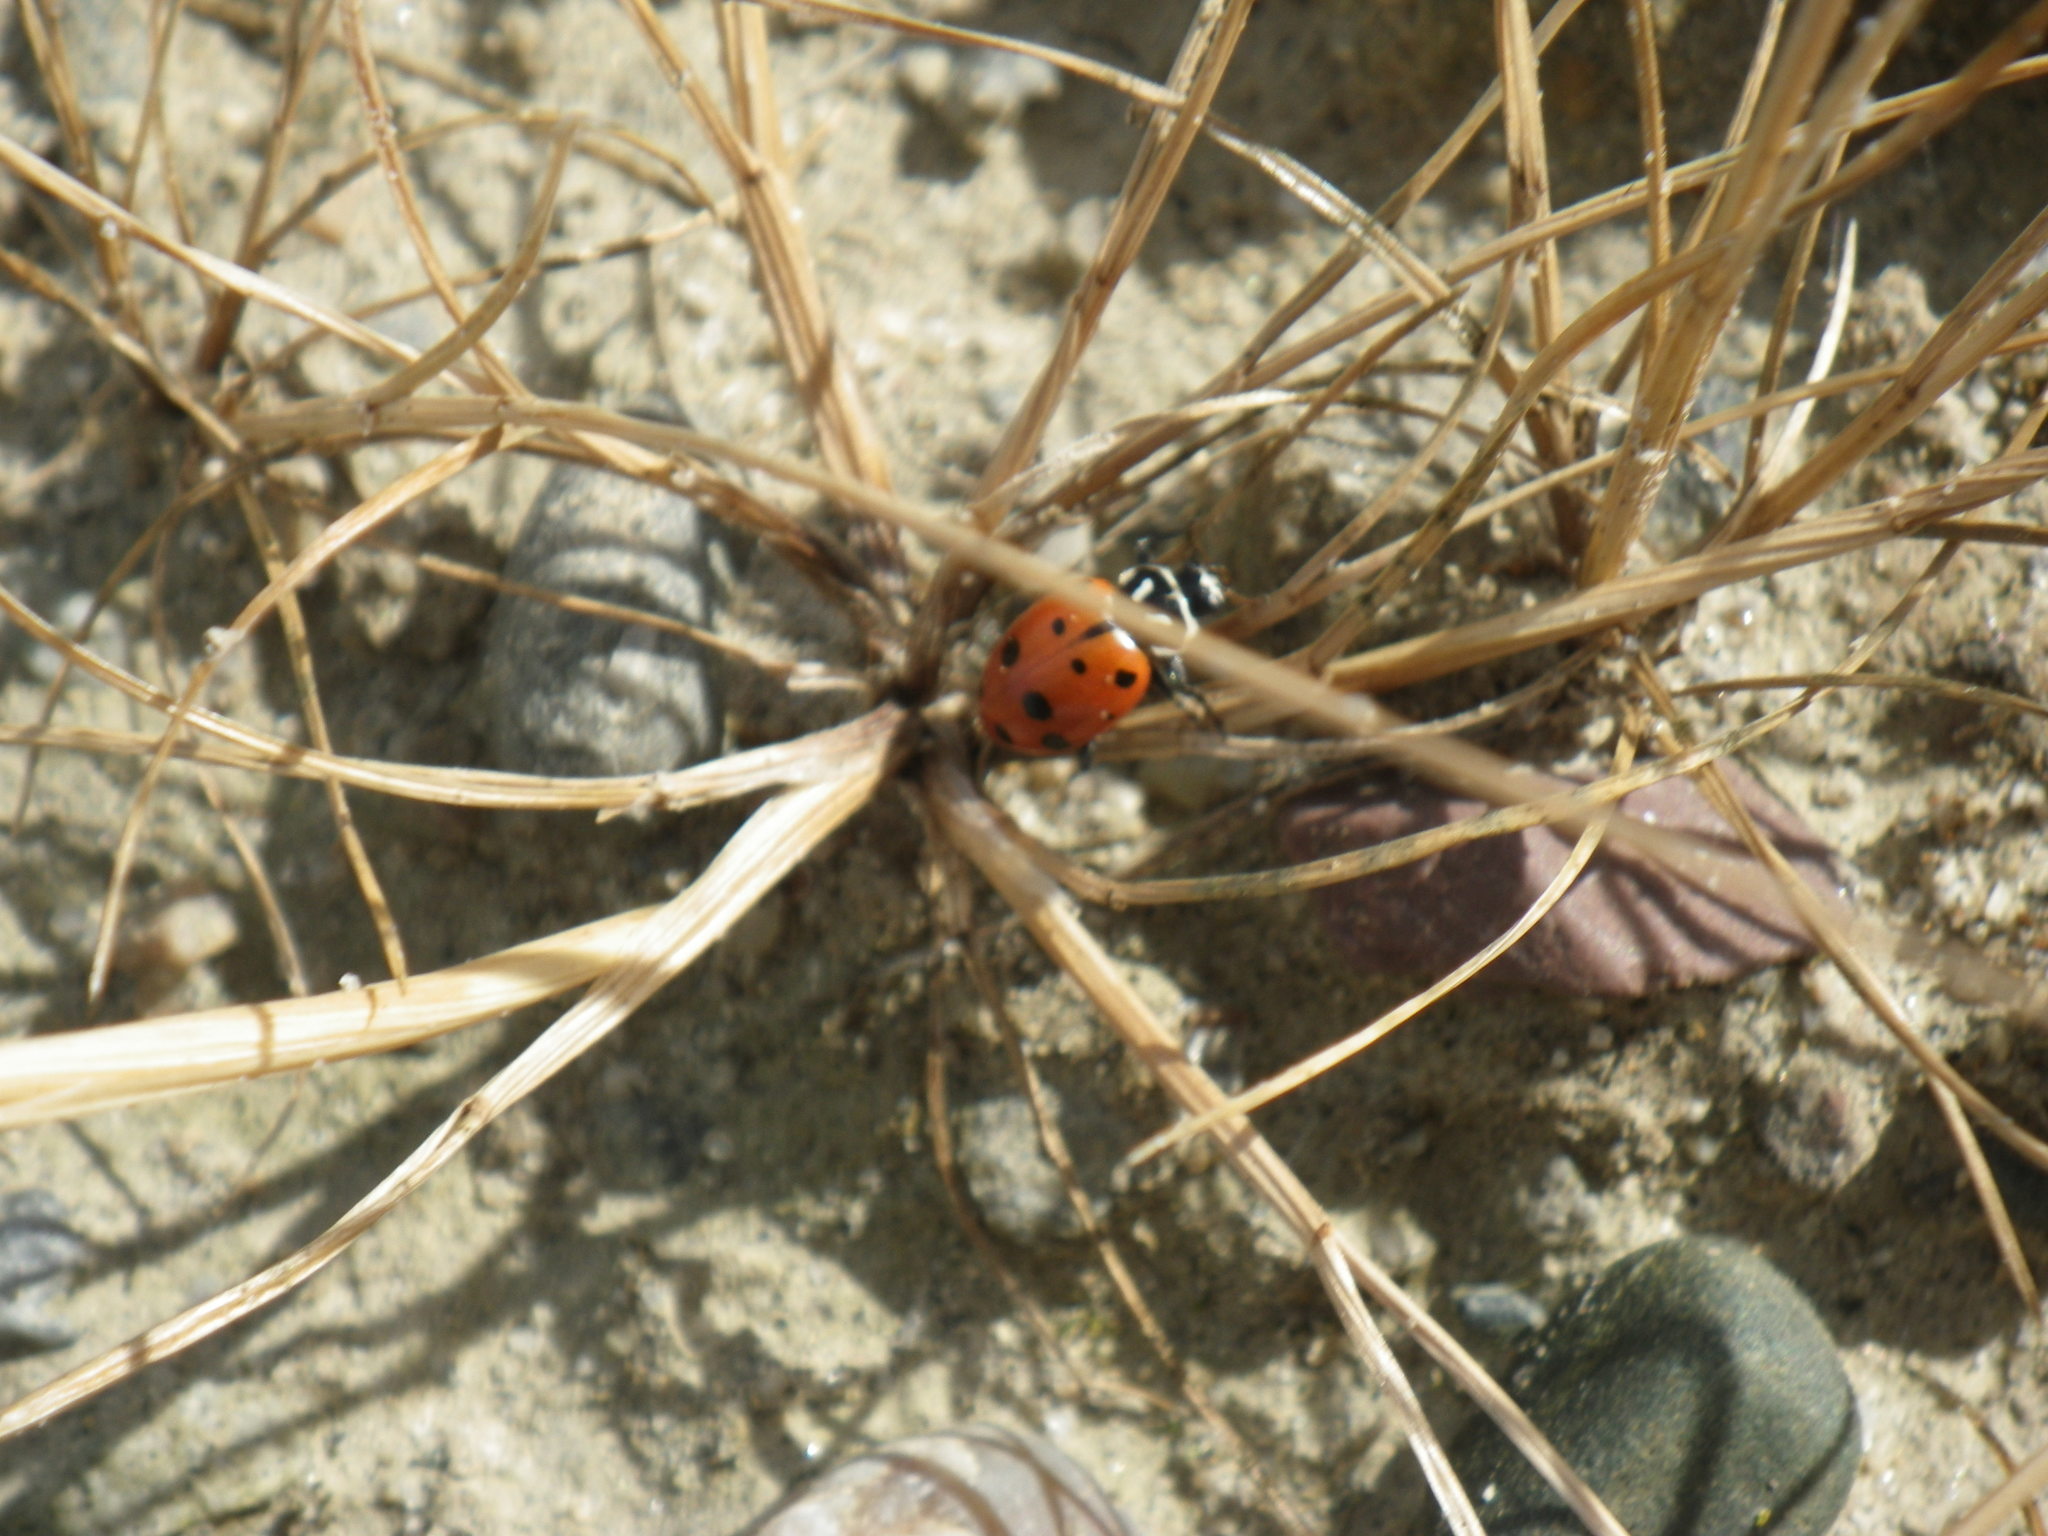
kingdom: Animalia
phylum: Arthropoda
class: Insecta
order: Coleoptera
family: Coccinellidae
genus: Hippodamia
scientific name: Hippodamia convergens
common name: Convergent lady beetle
